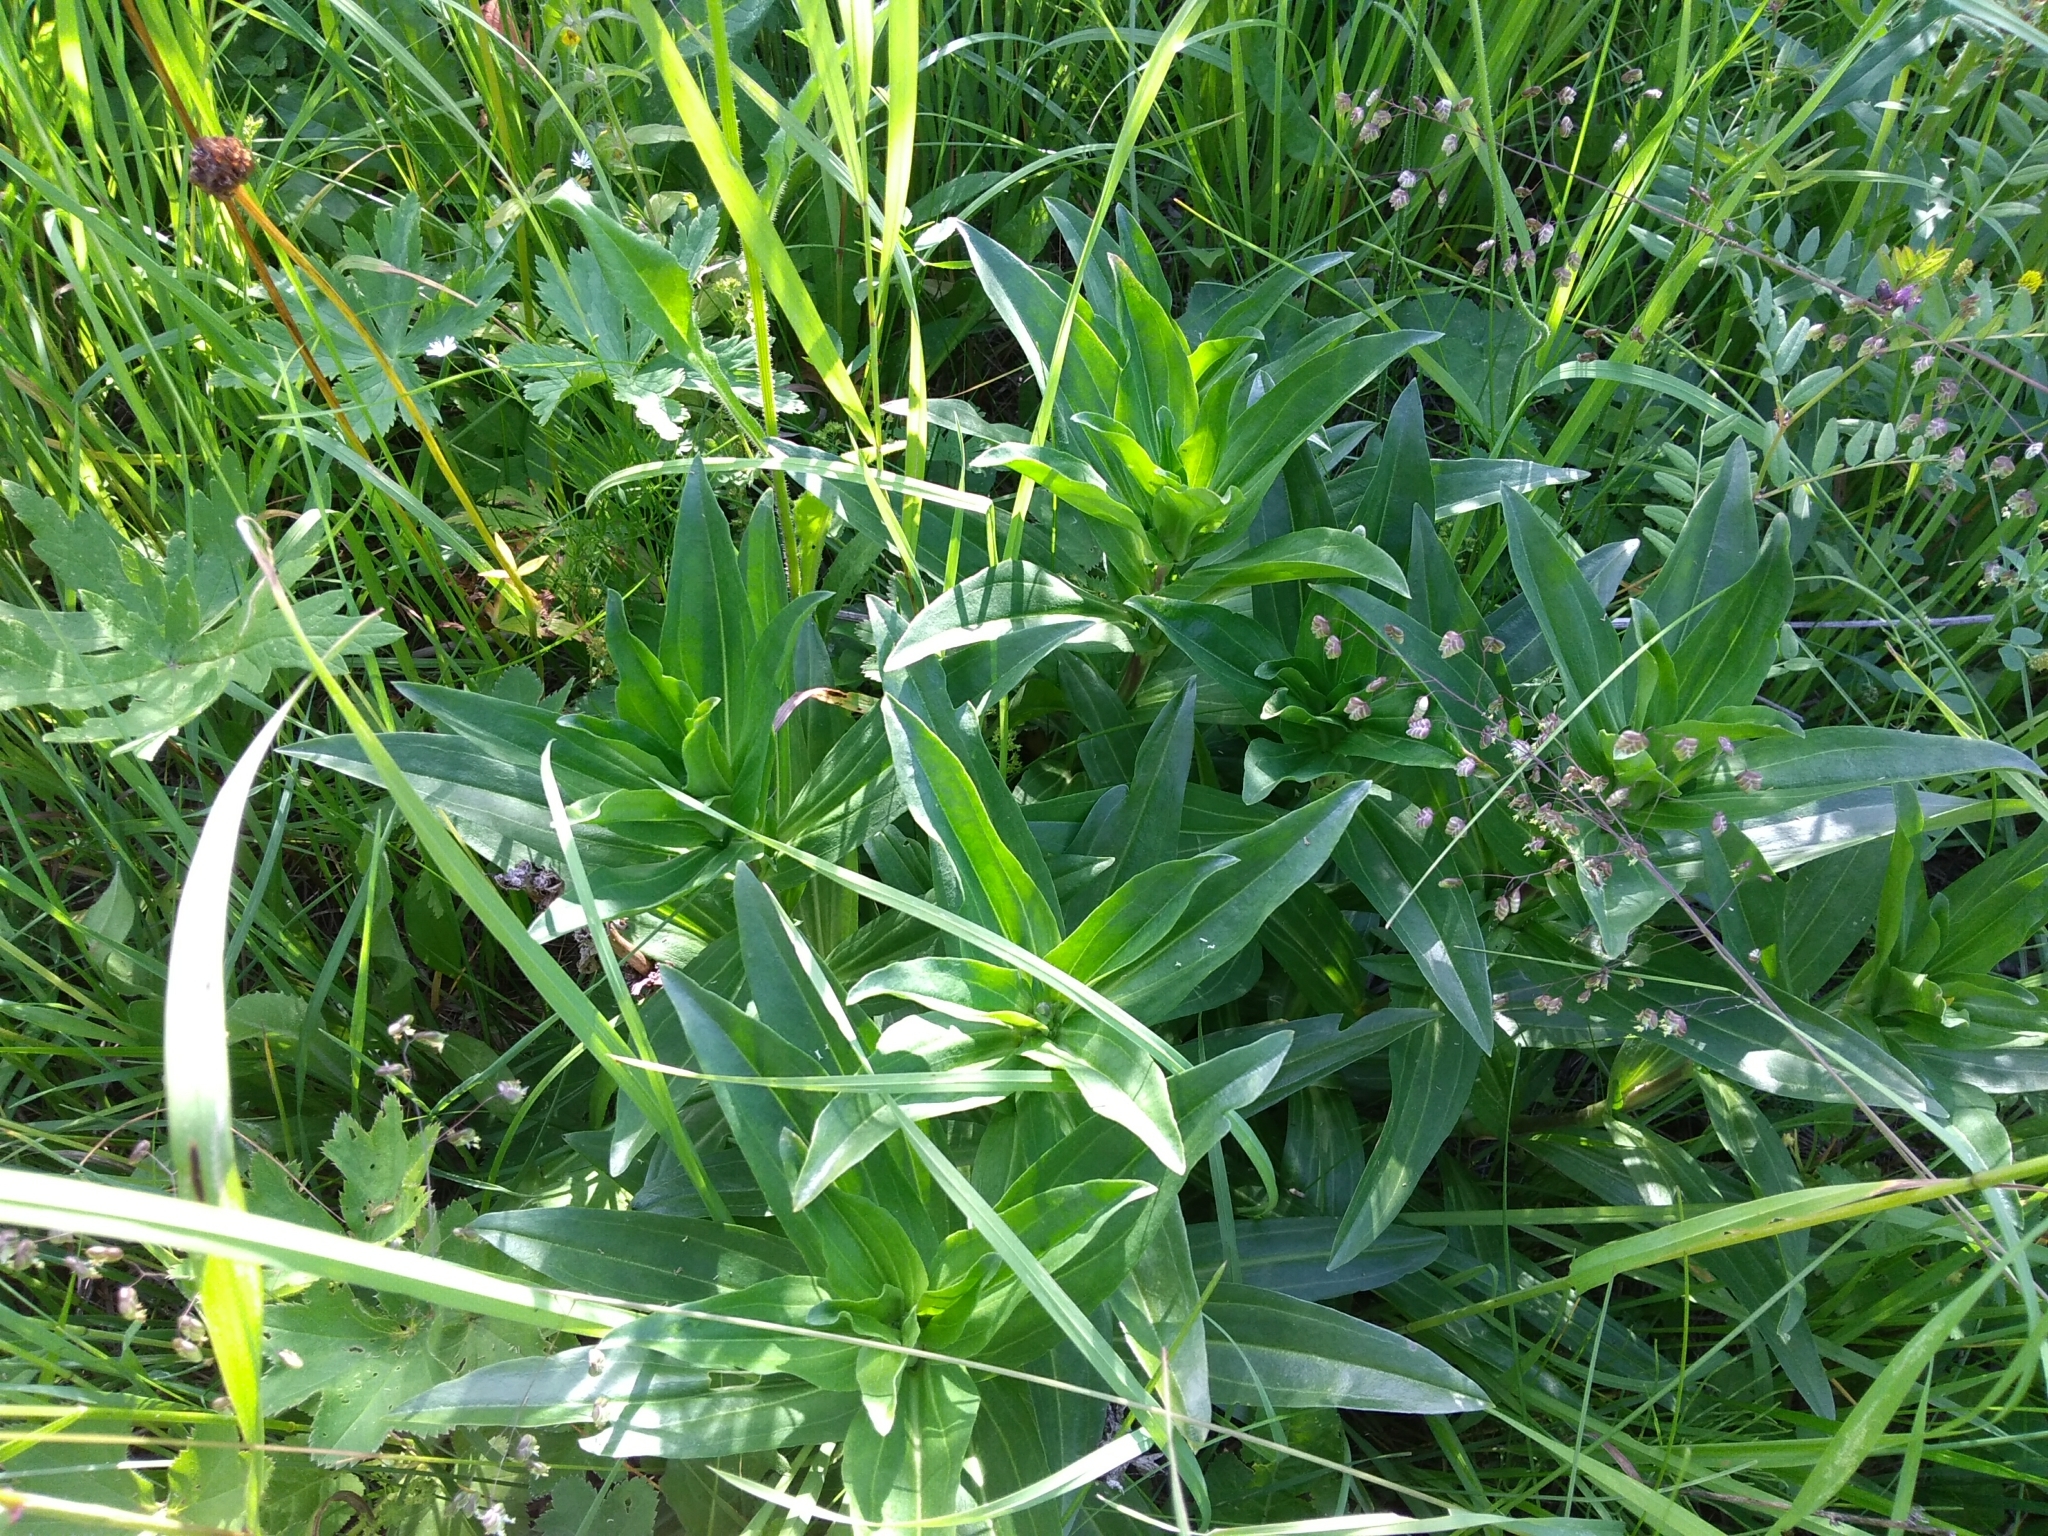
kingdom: Plantae
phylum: Tracheophyta
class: Magnoliopsida
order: Gentianales
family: Gentianaceae
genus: Gentiana
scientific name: Gentiana cruciata
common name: Cross gentian
